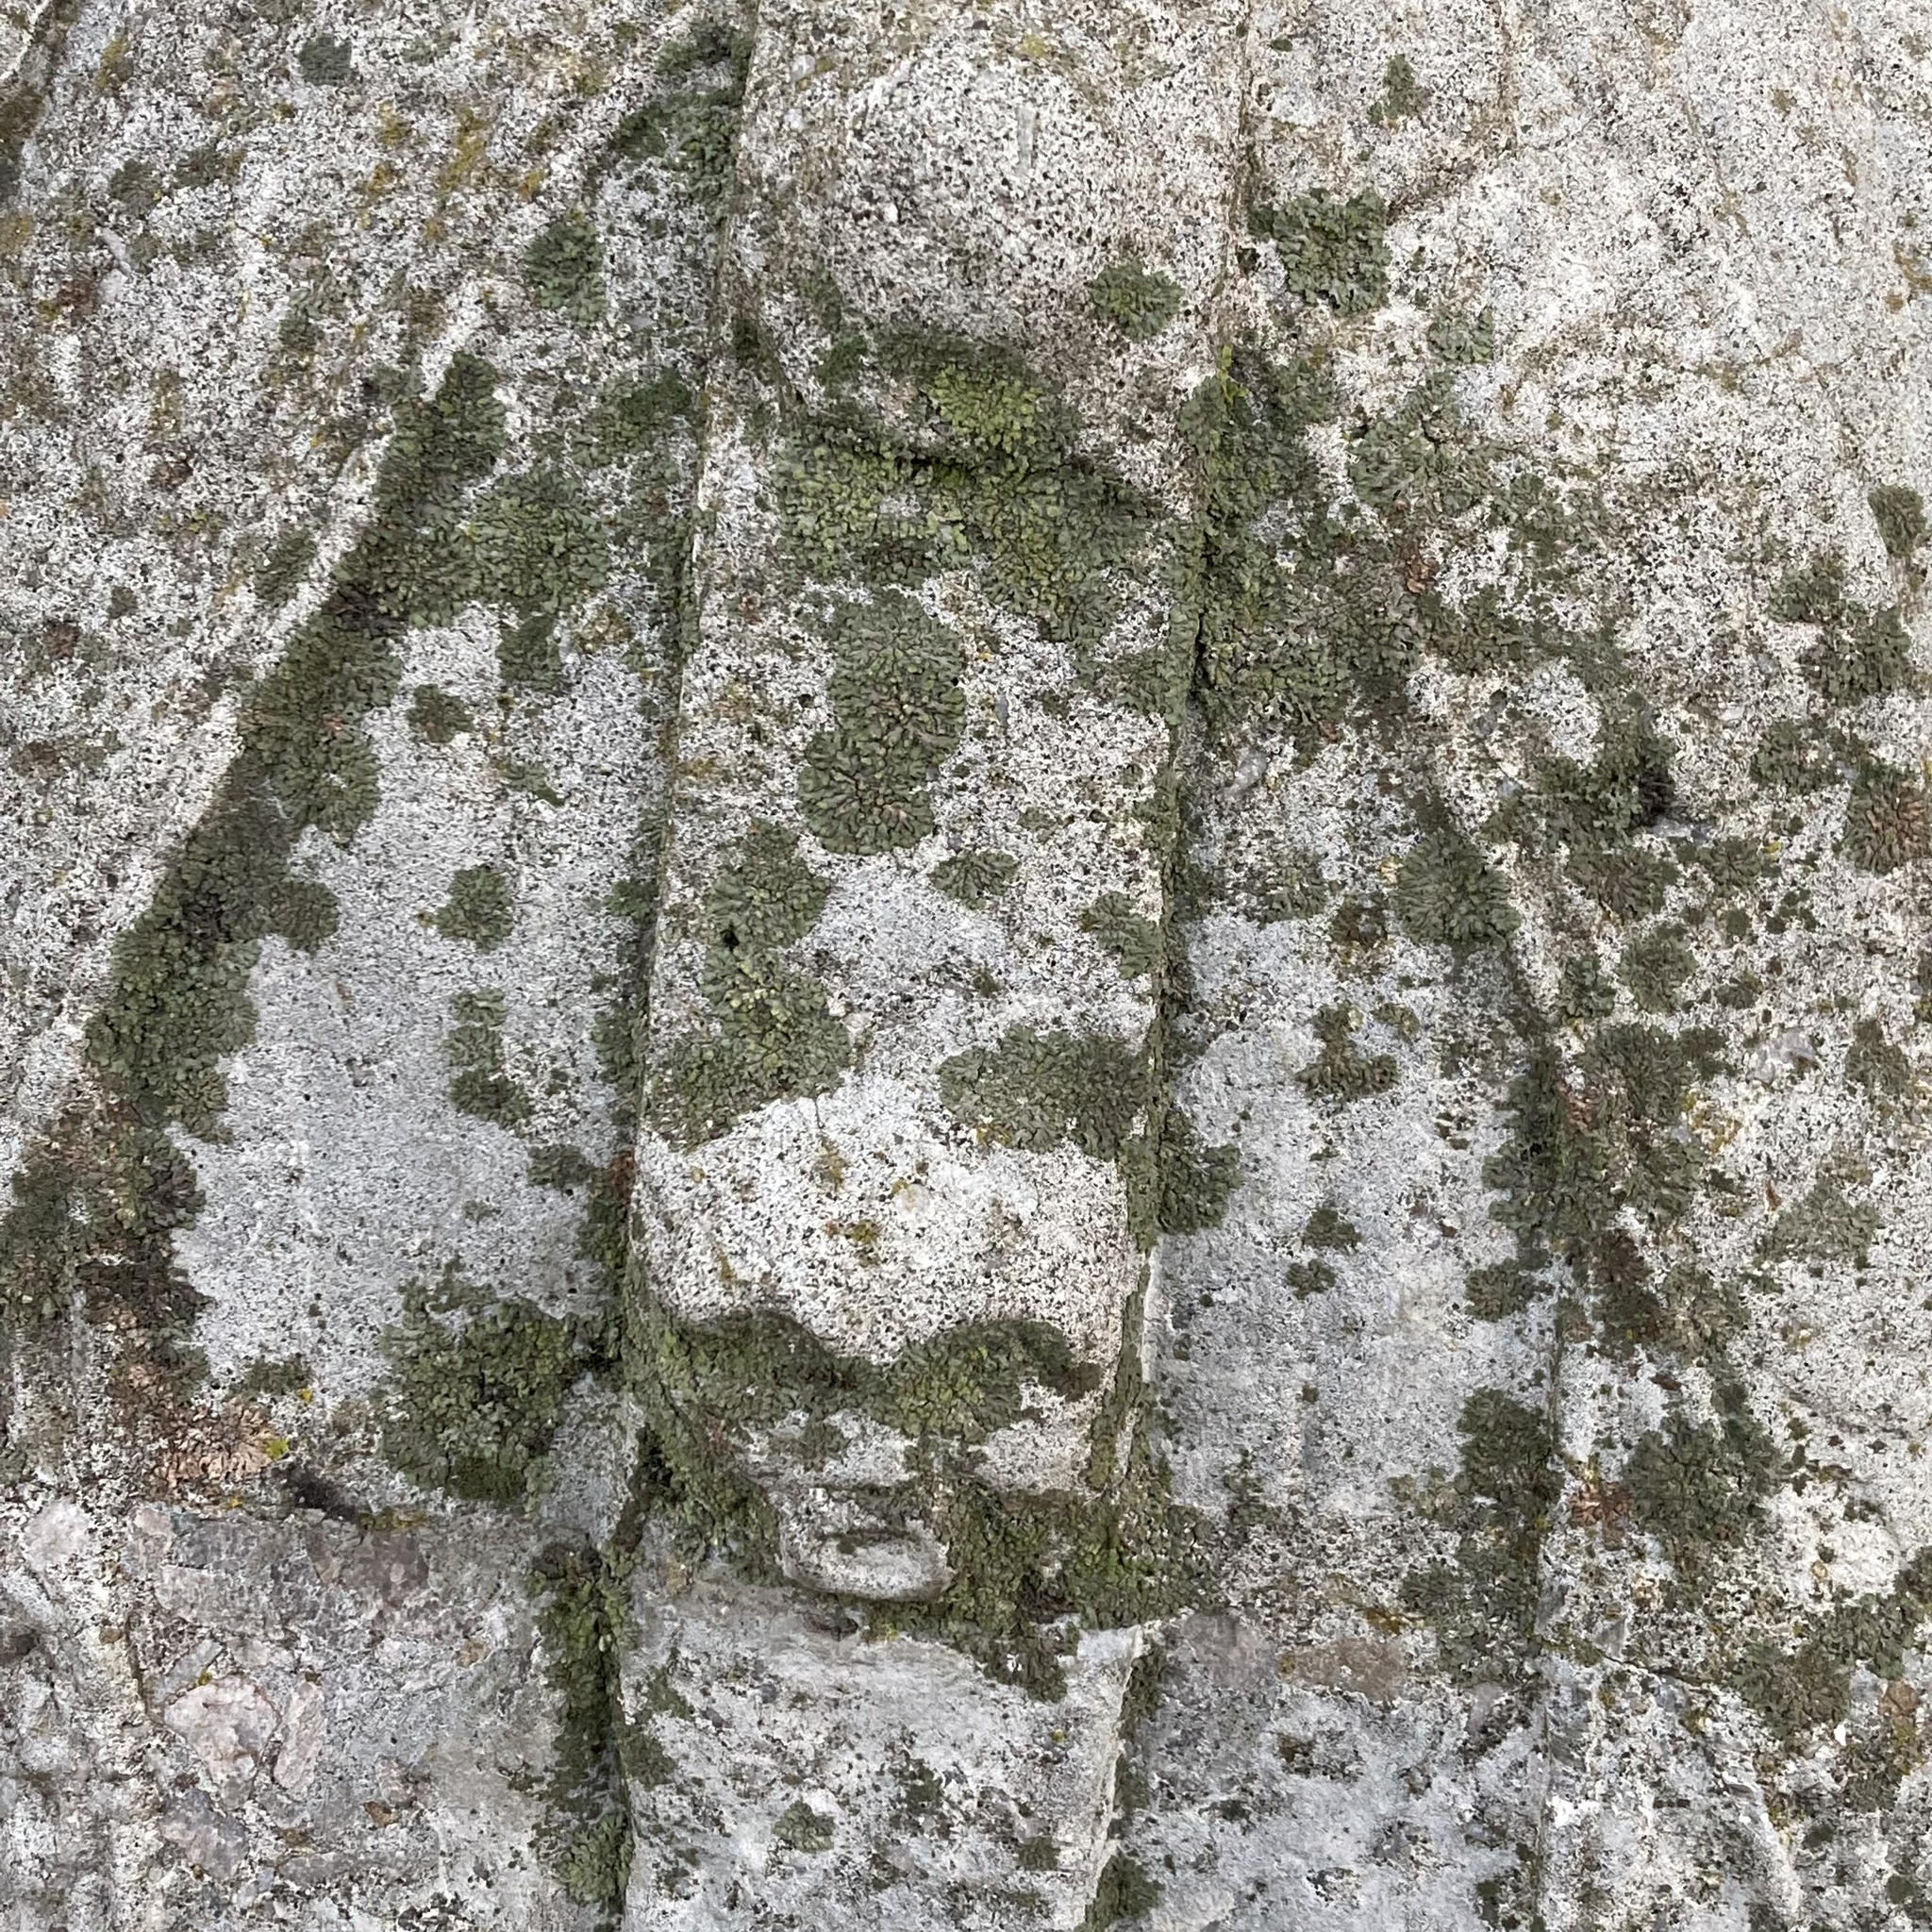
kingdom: Fungi
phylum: Ascomycota
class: Lecanoromycetes
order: Caliciales
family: Physciaceae
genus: Phaeophyscia
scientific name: Phaeophyscia orbicularis
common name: Mealy shadow lichen
